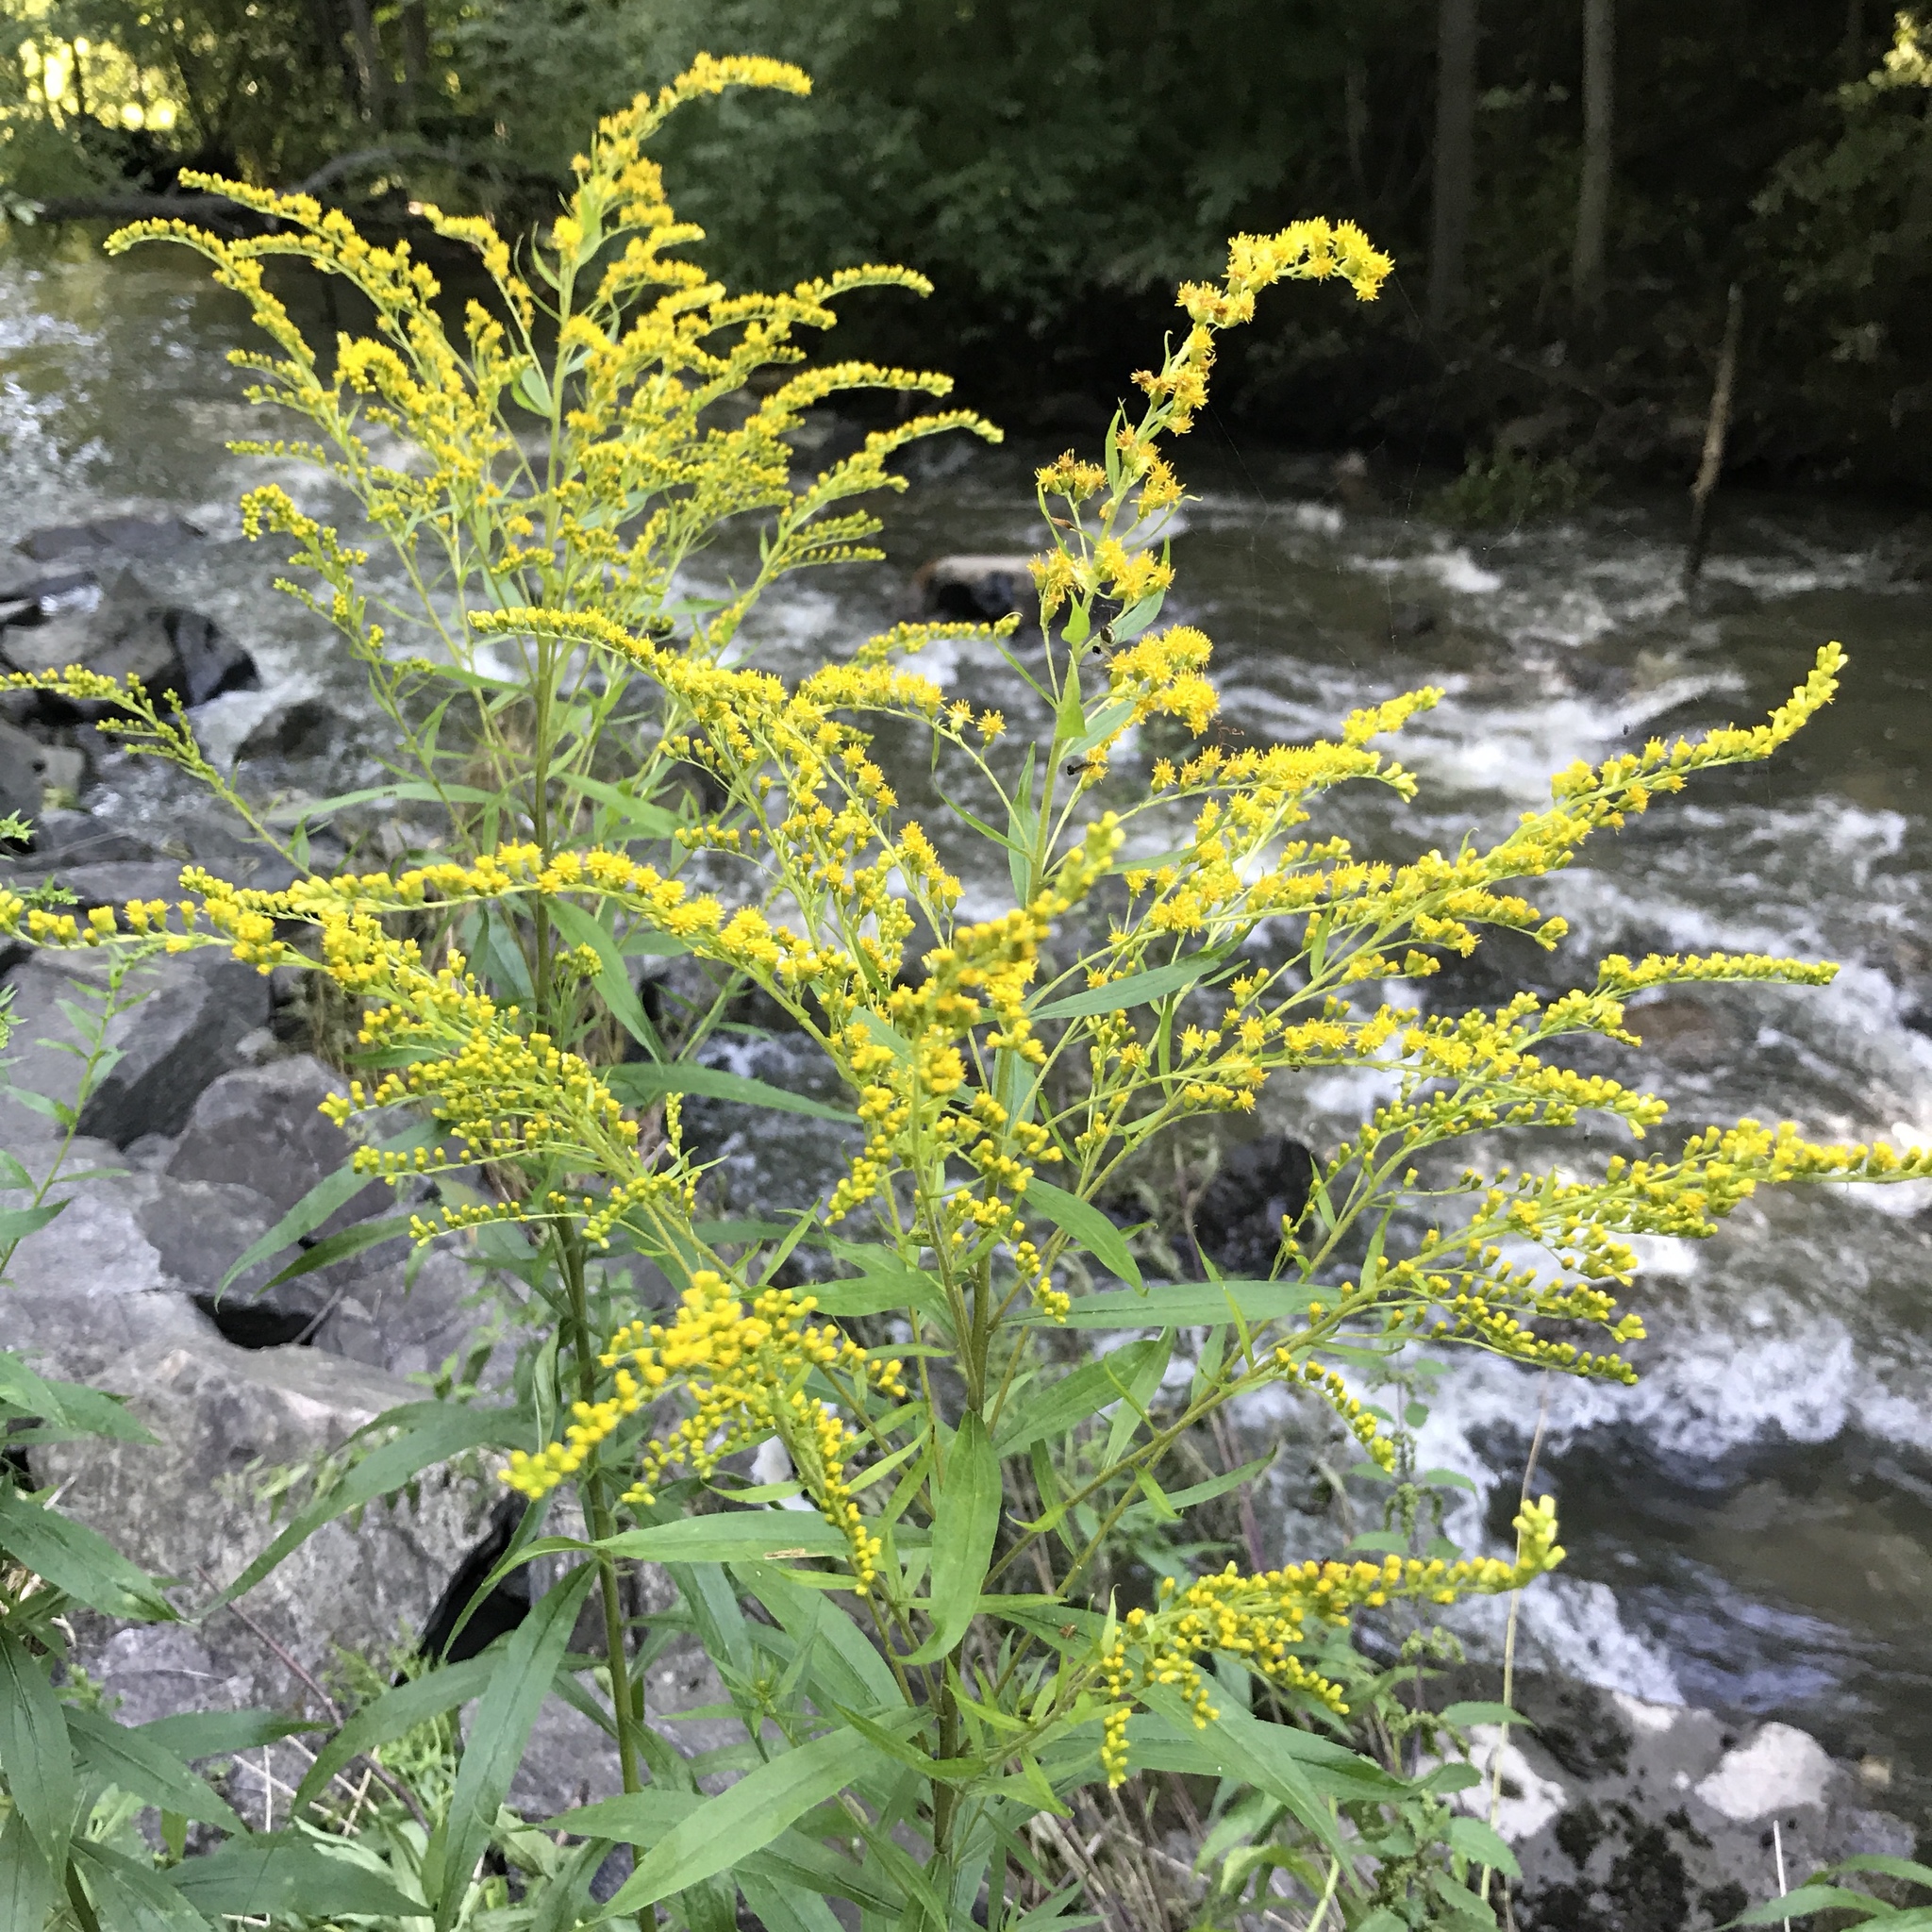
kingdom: Plantae
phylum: Tracheophyta
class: Magnoliopsida
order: Asterales
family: Asteraceae
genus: Solidago
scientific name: Solidago canadensis
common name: Canada goldenrod
